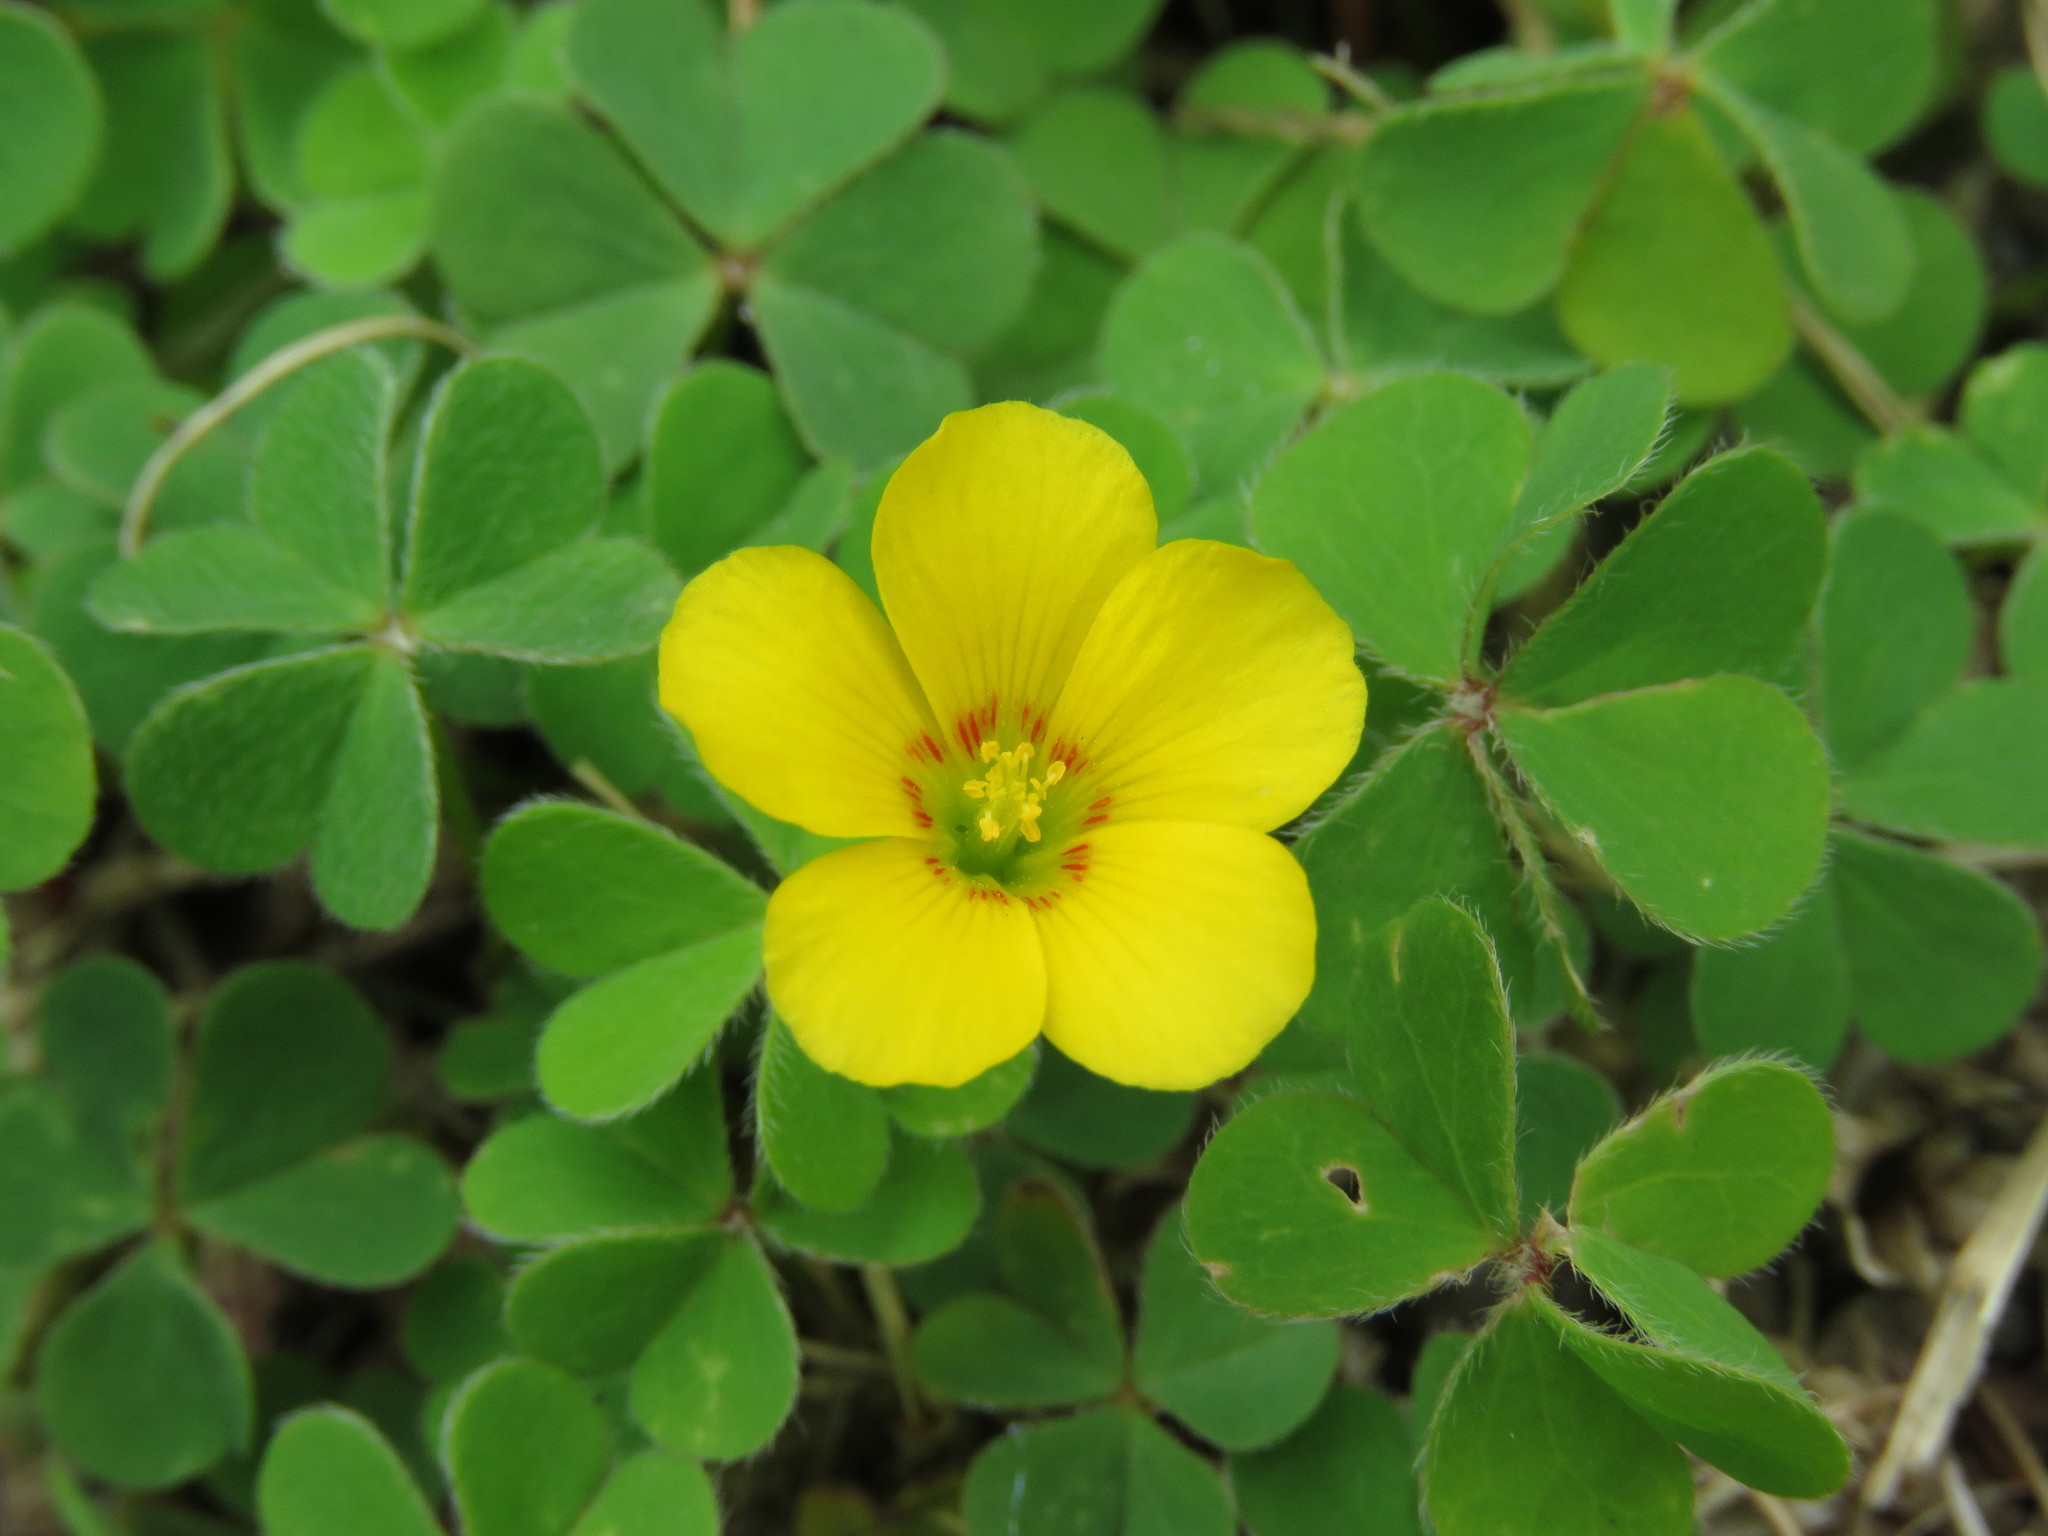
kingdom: Plantae
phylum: Tracheophyta
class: Magnoliopsida
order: Oxalidales
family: Oxalidaceae
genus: Oxalis
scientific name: Oxalis corniculata
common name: Procumbent yellow-sorrel
